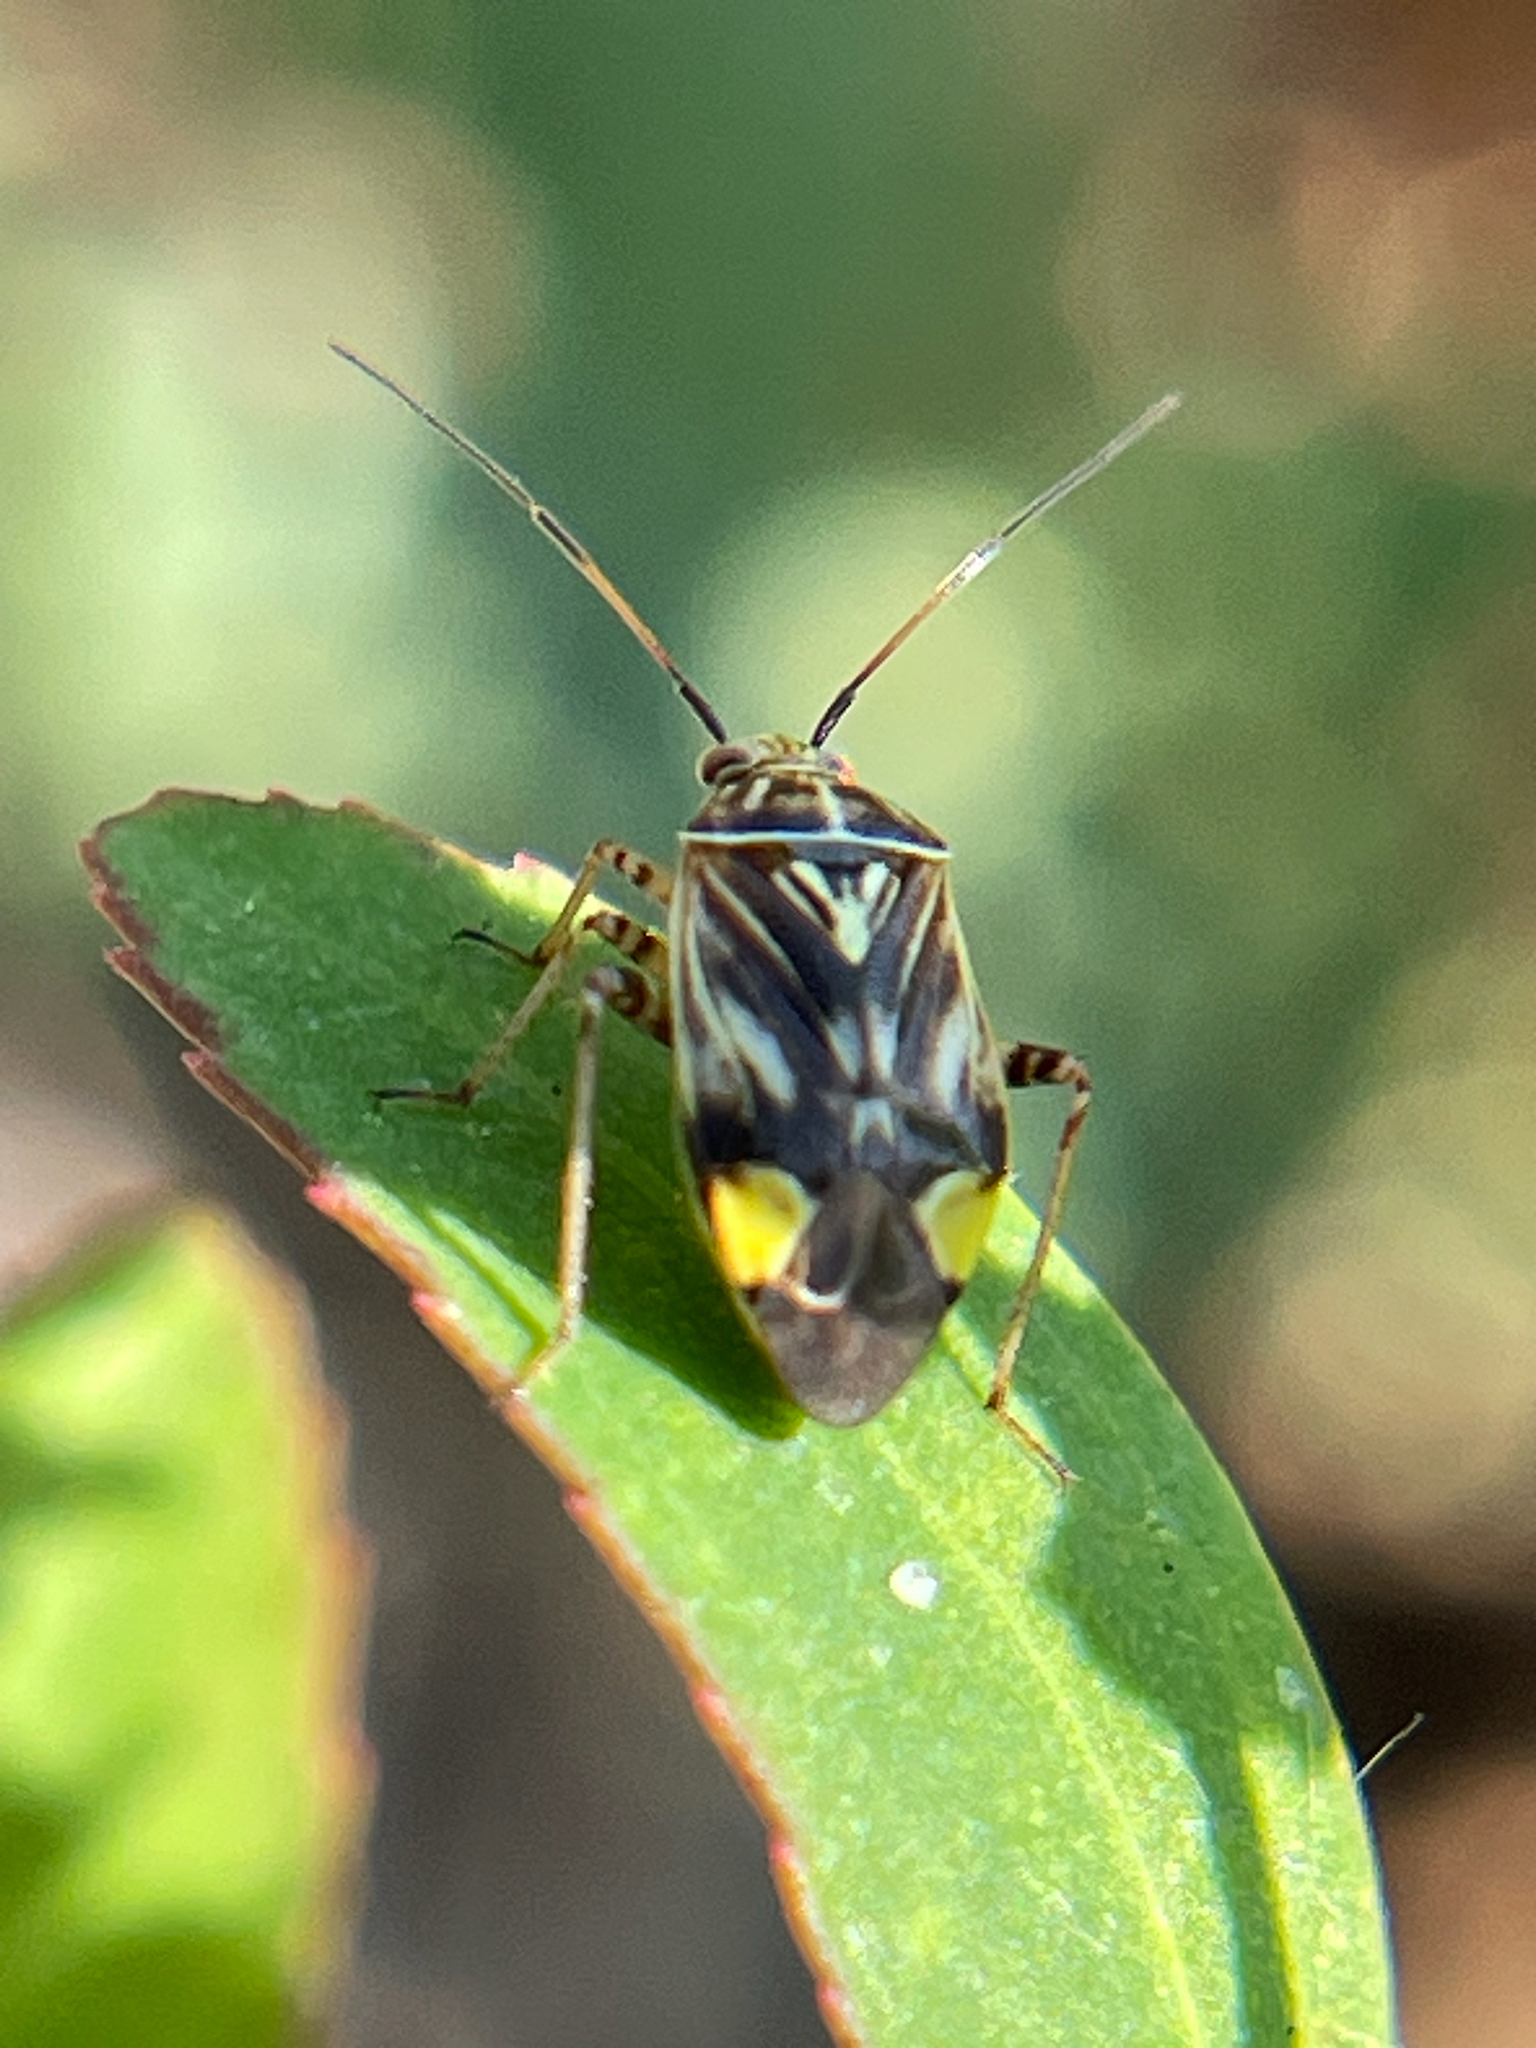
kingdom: Animalia
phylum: Arthropoda
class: Insecta
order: Hemiptera
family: Miridae
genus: Lygus
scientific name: Lygus lineolaris
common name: North american tarnished plant bug
